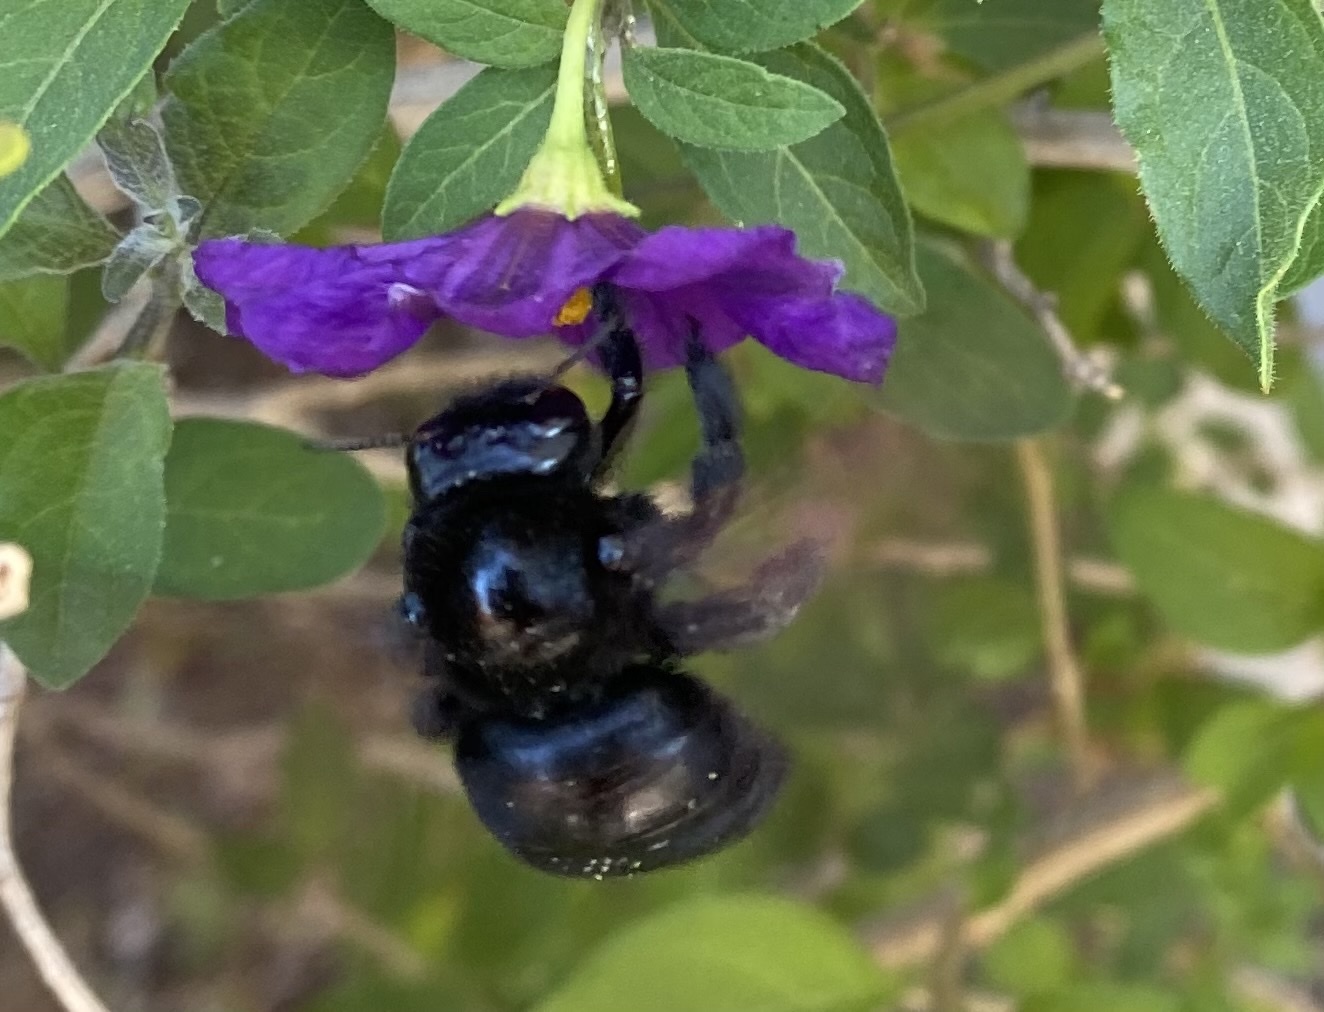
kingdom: Animalia
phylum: Arthropoda
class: Insecta
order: Hymenoptera
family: Apidae
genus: Xylocopa
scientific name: Xylocopa sonorina
